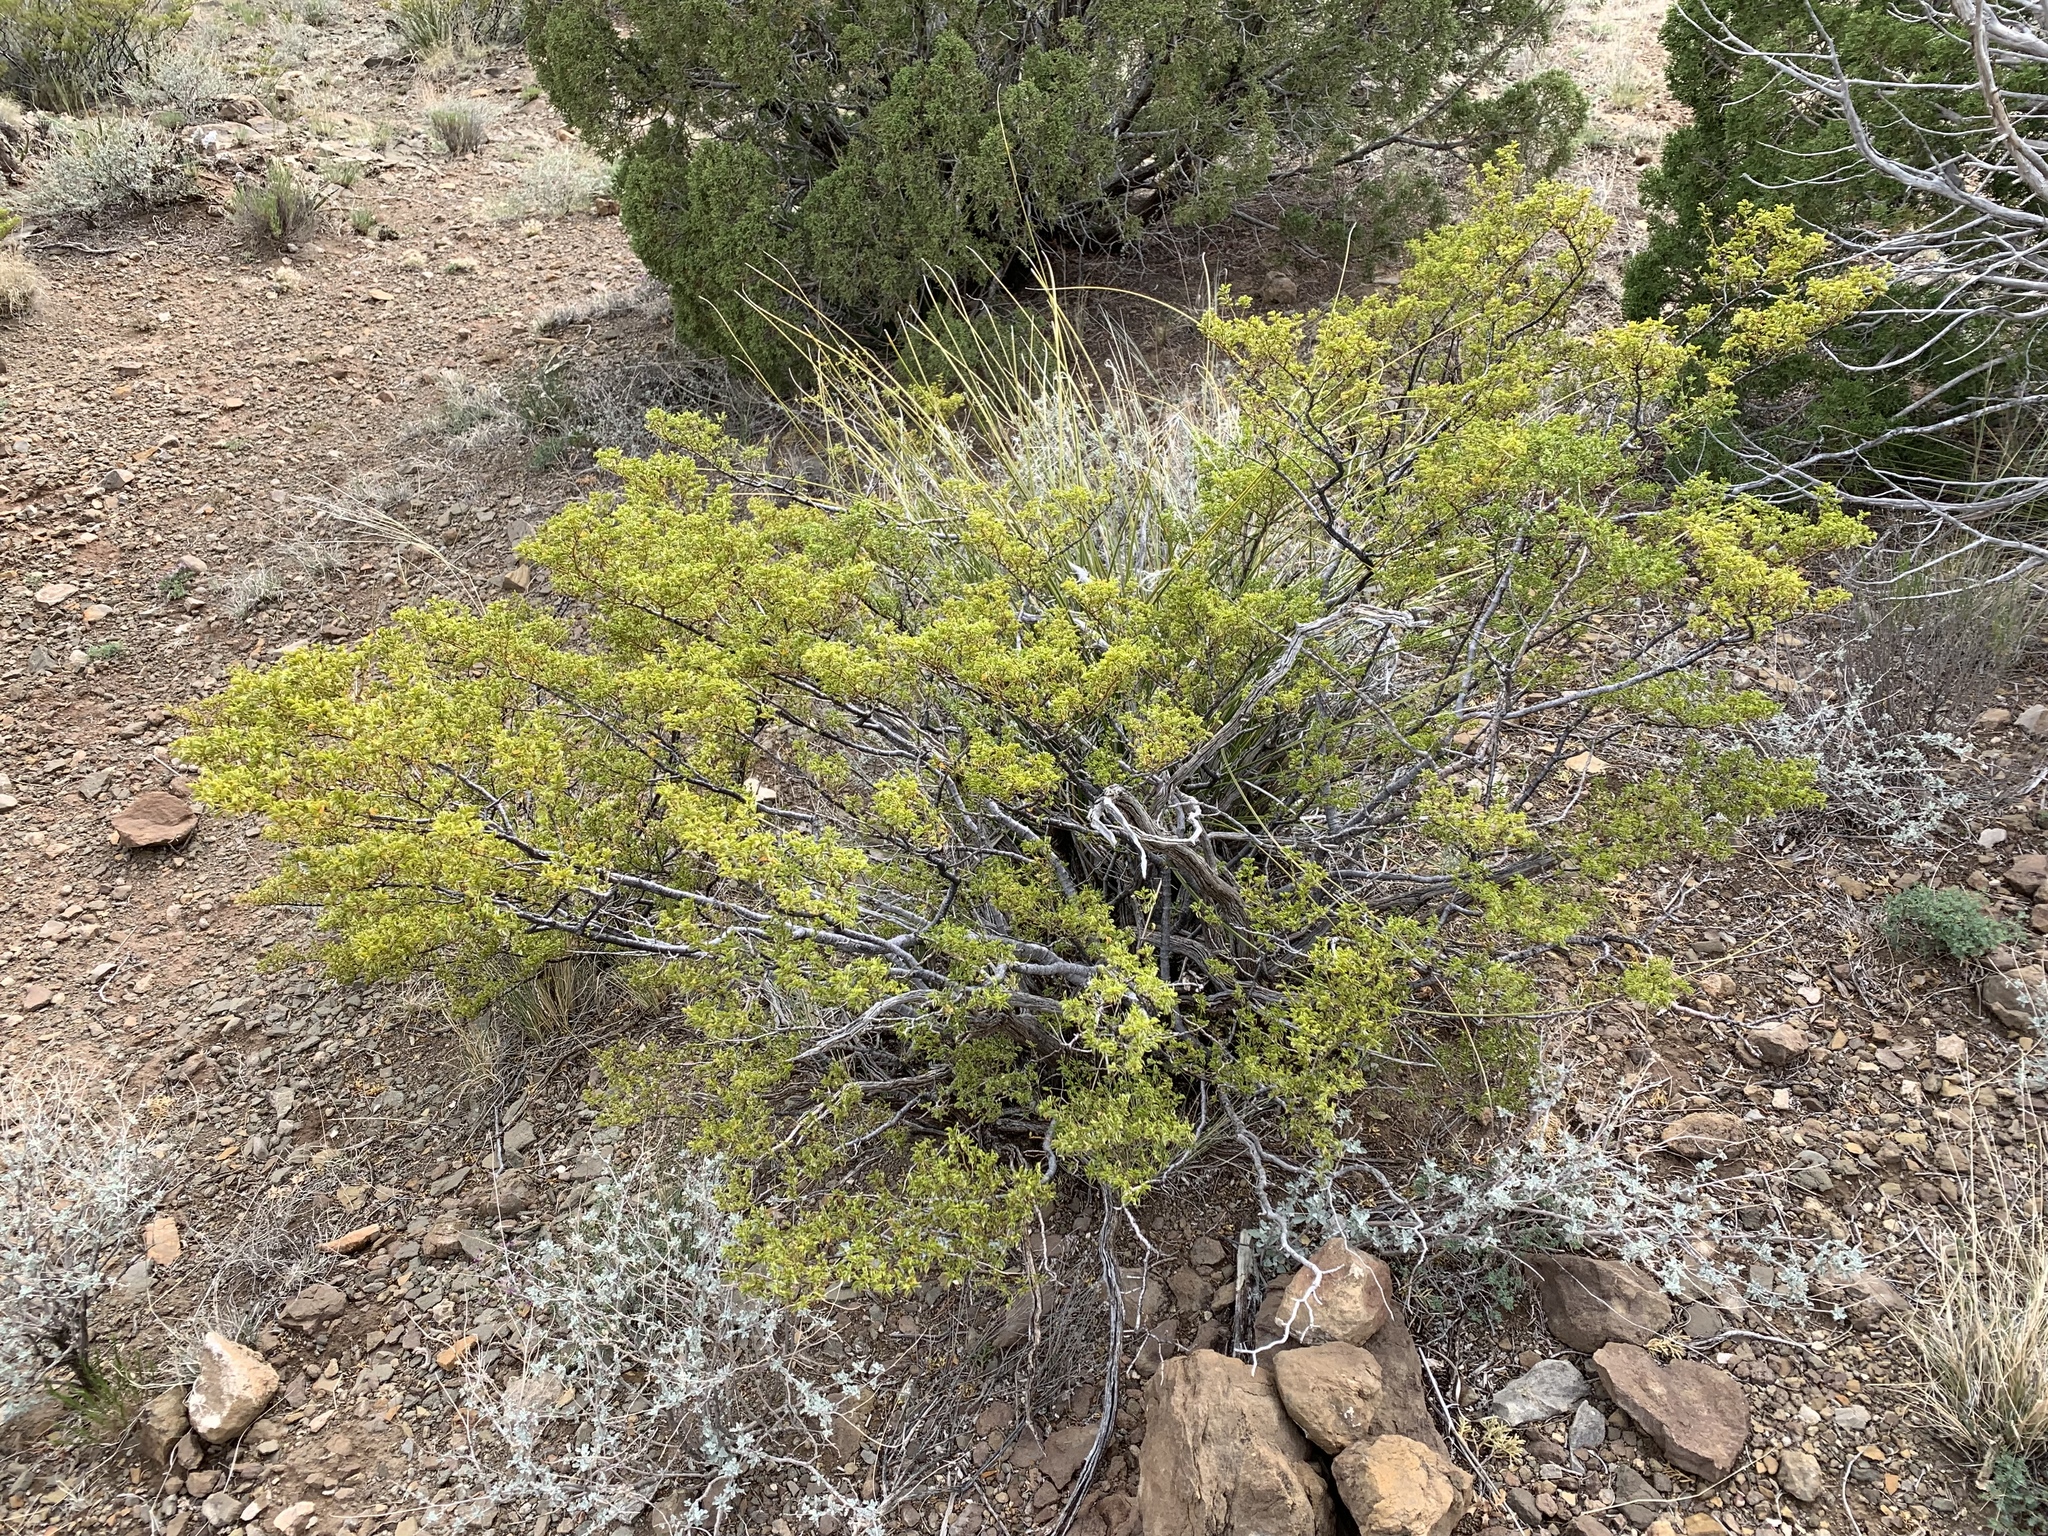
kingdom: Plantae
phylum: Tracheophyta
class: Magnoliopsida
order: Zygophyllales
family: Zygophyllaceae
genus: Larrea
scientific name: Larrea tridentata
